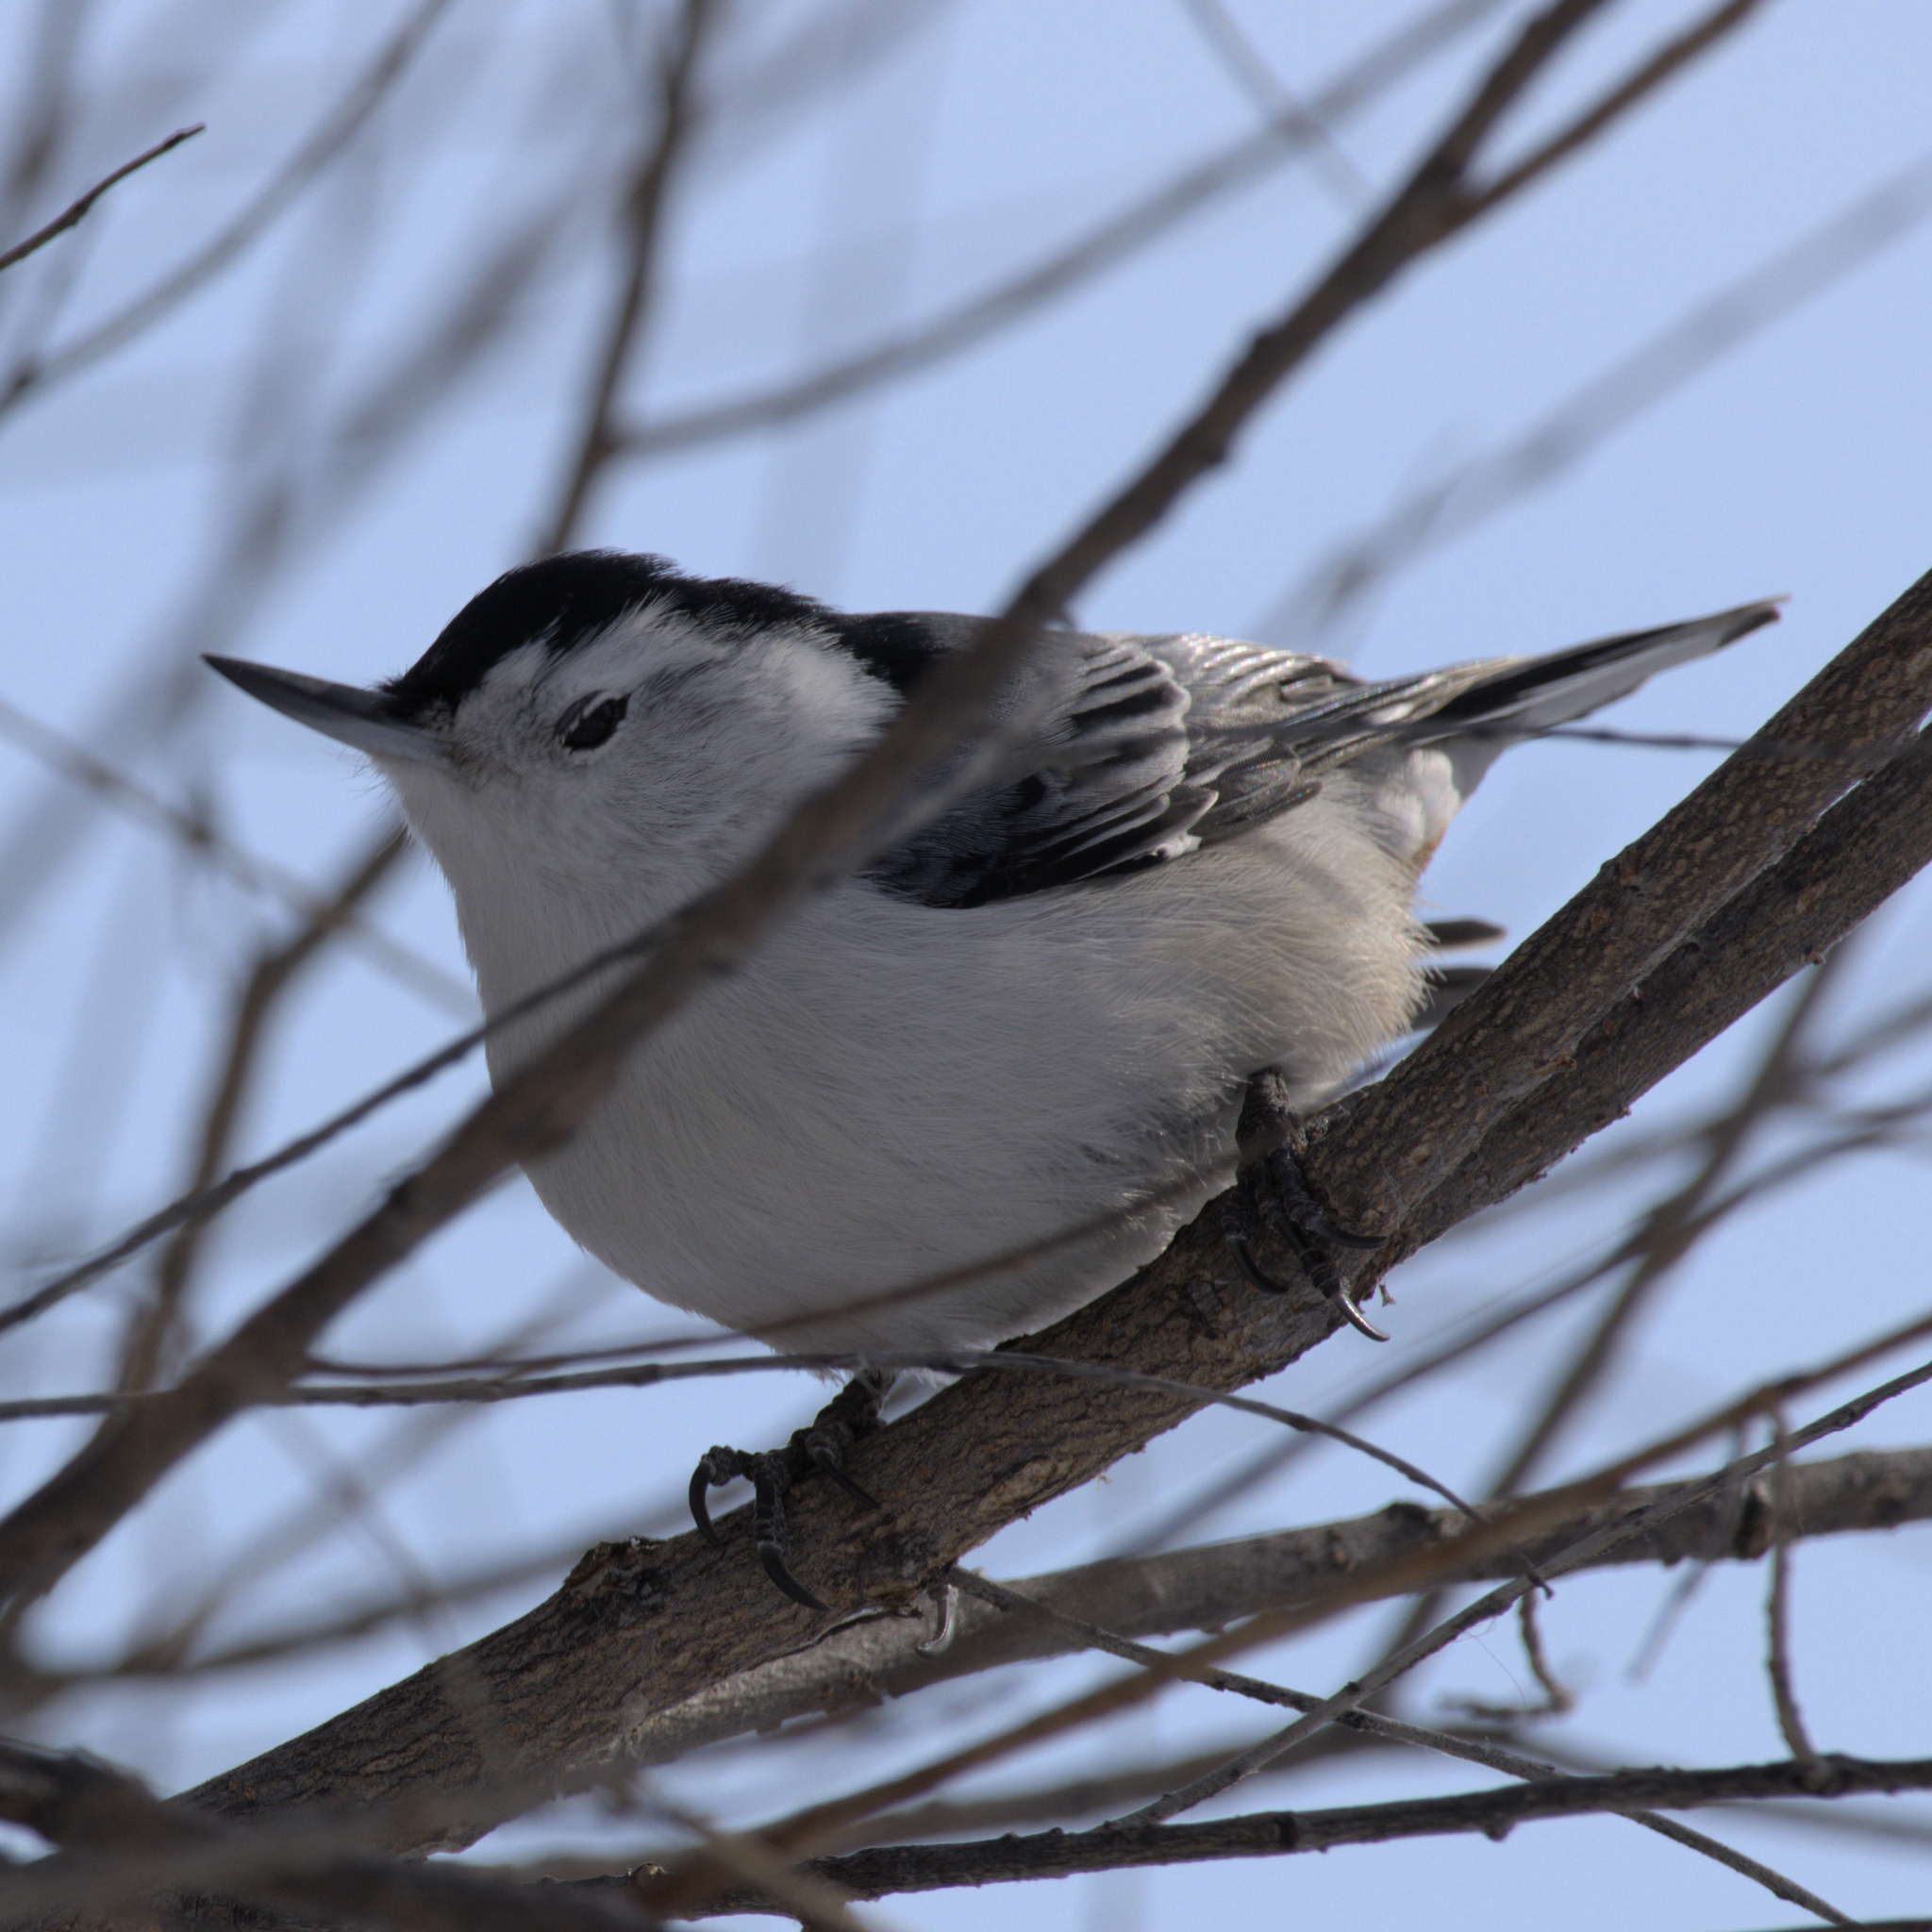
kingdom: Animalia
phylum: Chordata
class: Aves
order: Passeriformes
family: Sittidae
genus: Sitta
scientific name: Sitta carolinensis
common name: White-breasted nuthatch
